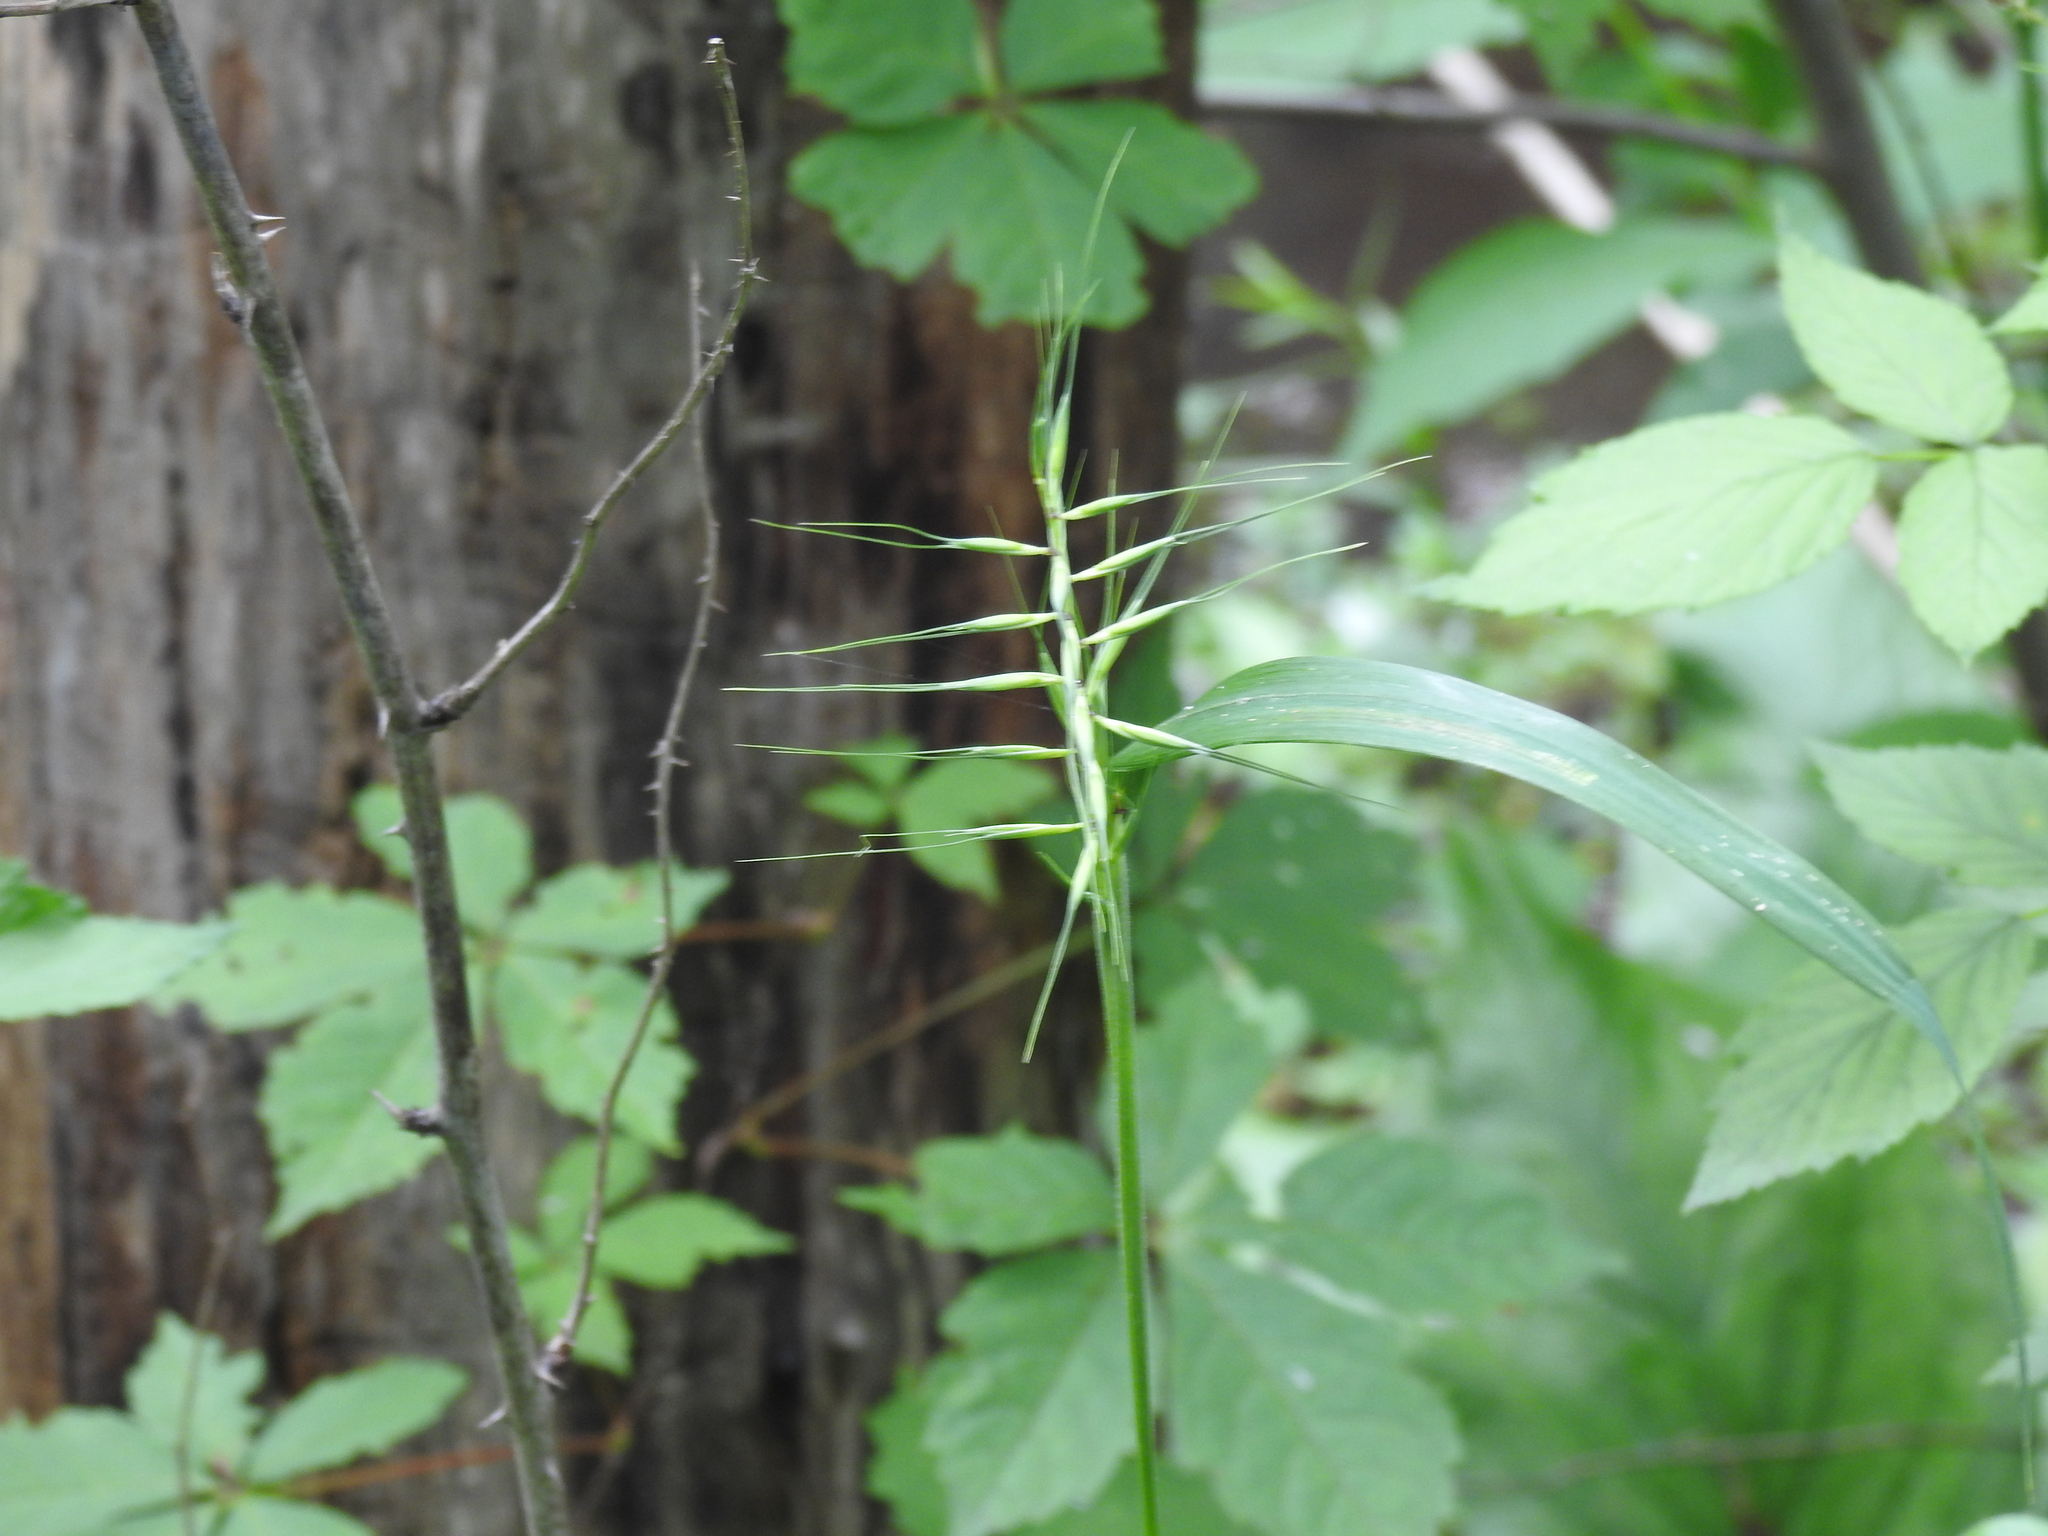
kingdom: Plantae
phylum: Tracheophyta
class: Liliopsida
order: Poales
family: Poaceae
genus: Elymus
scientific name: Elymus hystrix
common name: Bottlebrush grass
